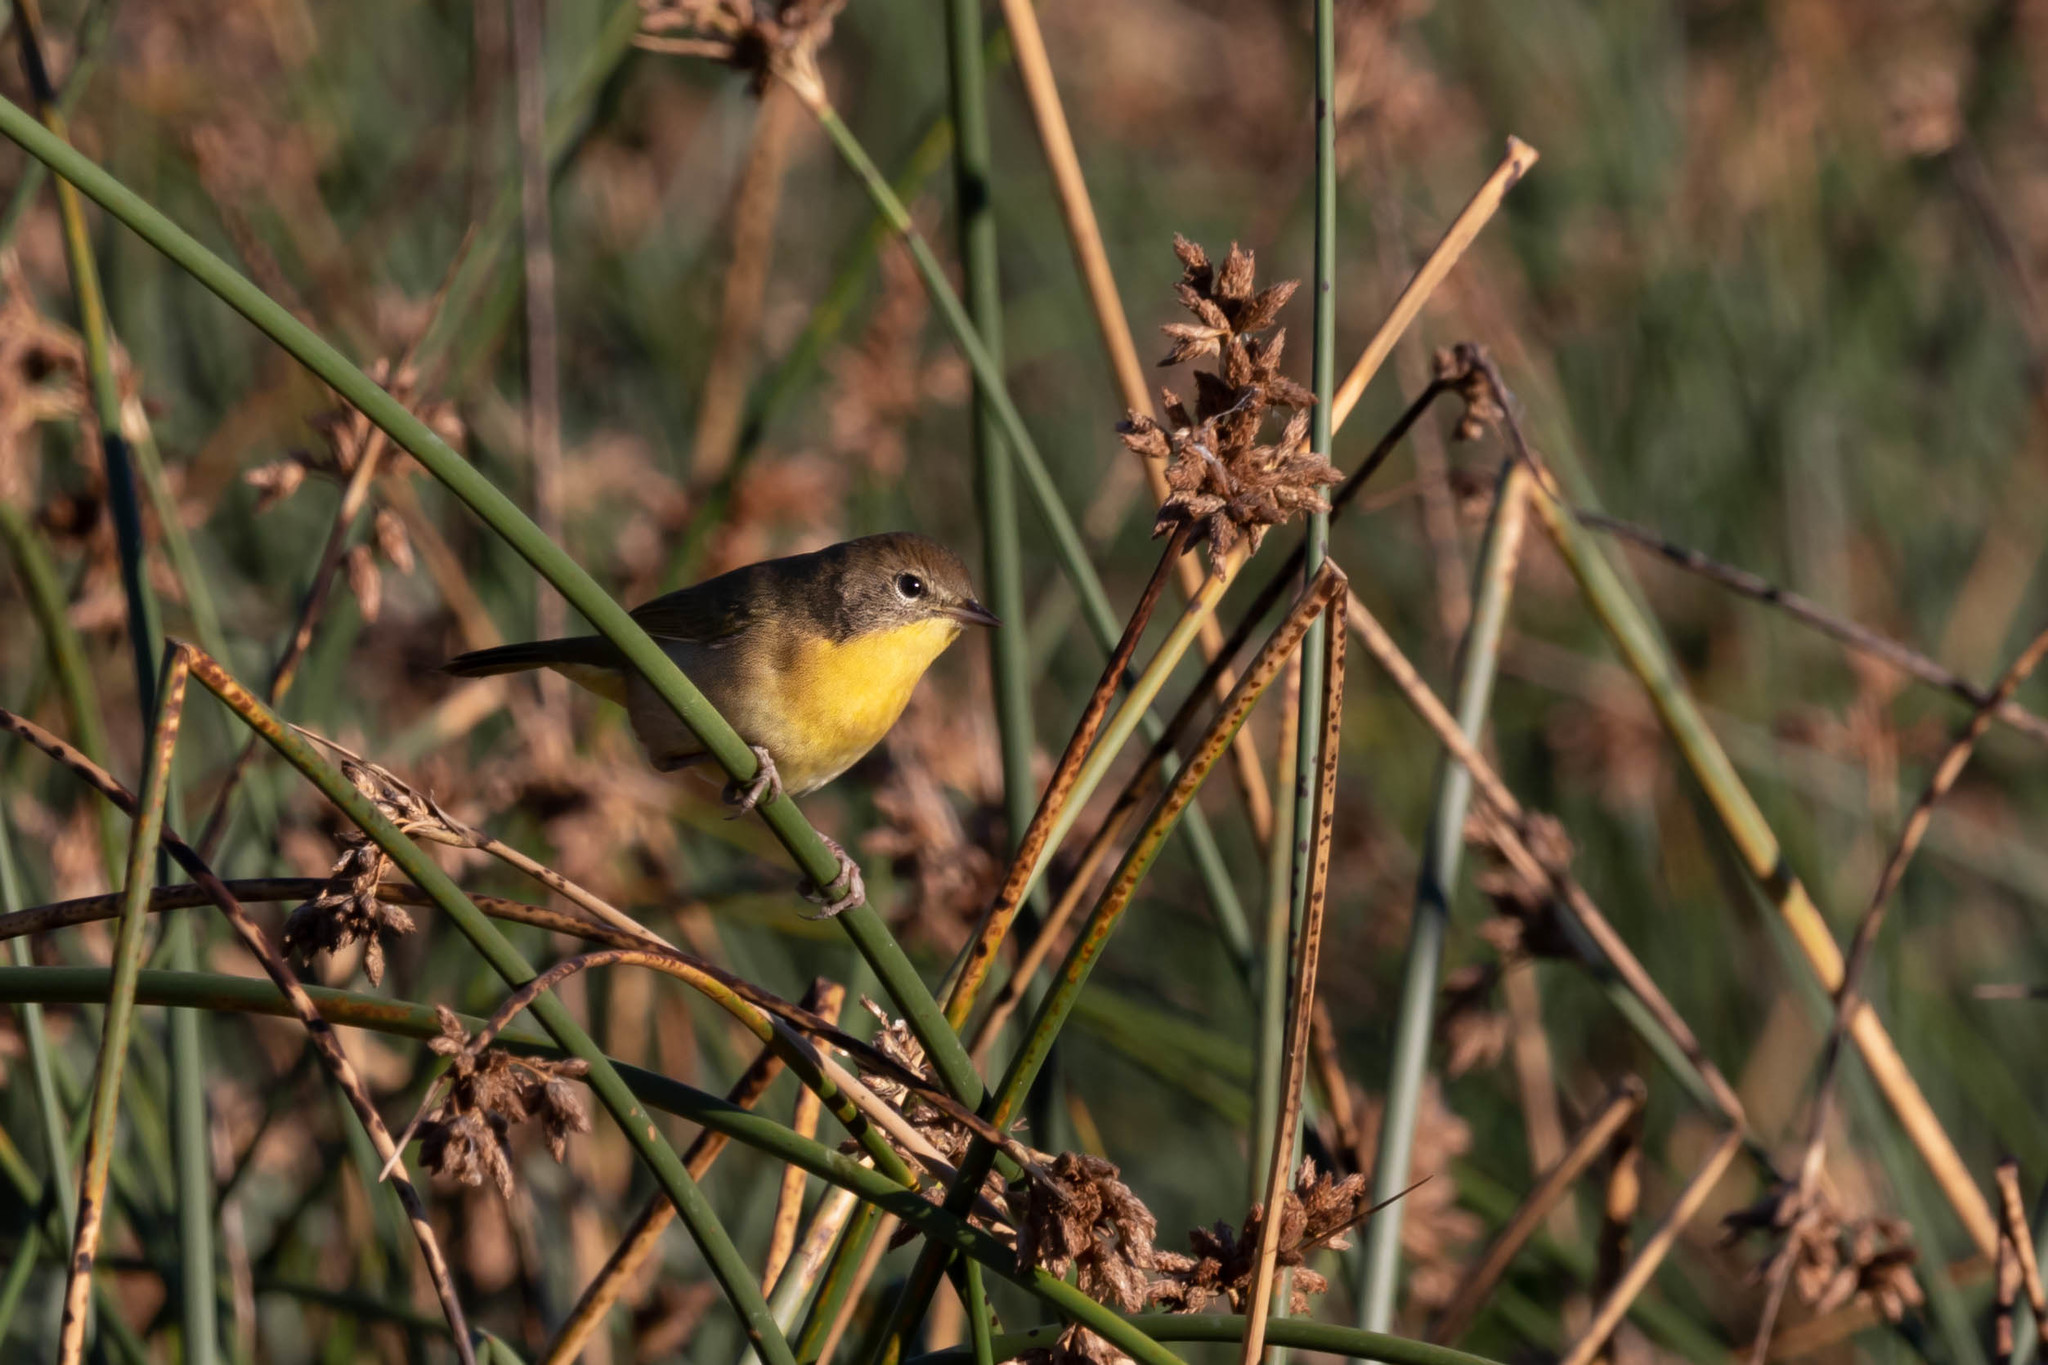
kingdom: Animalia
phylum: Chordata
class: Aves
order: Passeriformes
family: Parulidae
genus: Geothlypis
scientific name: Geothlypis trichas
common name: Common yellowthroat
